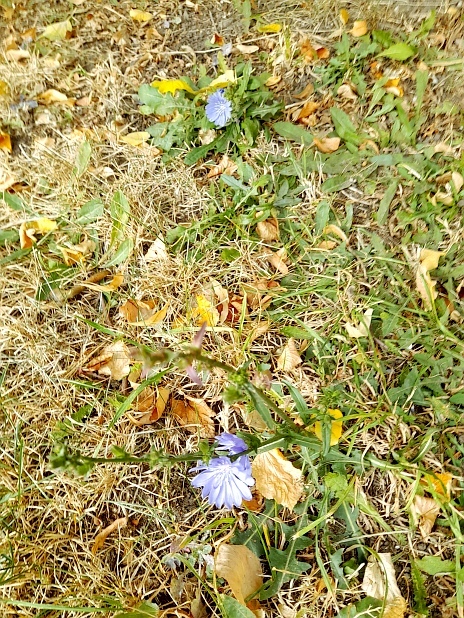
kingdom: Plantae
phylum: Tracheophyta
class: Magnoliopsida
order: Asterales
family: Asteraceae
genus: Cichorium
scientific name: Cichorium intybus
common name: Chicory
